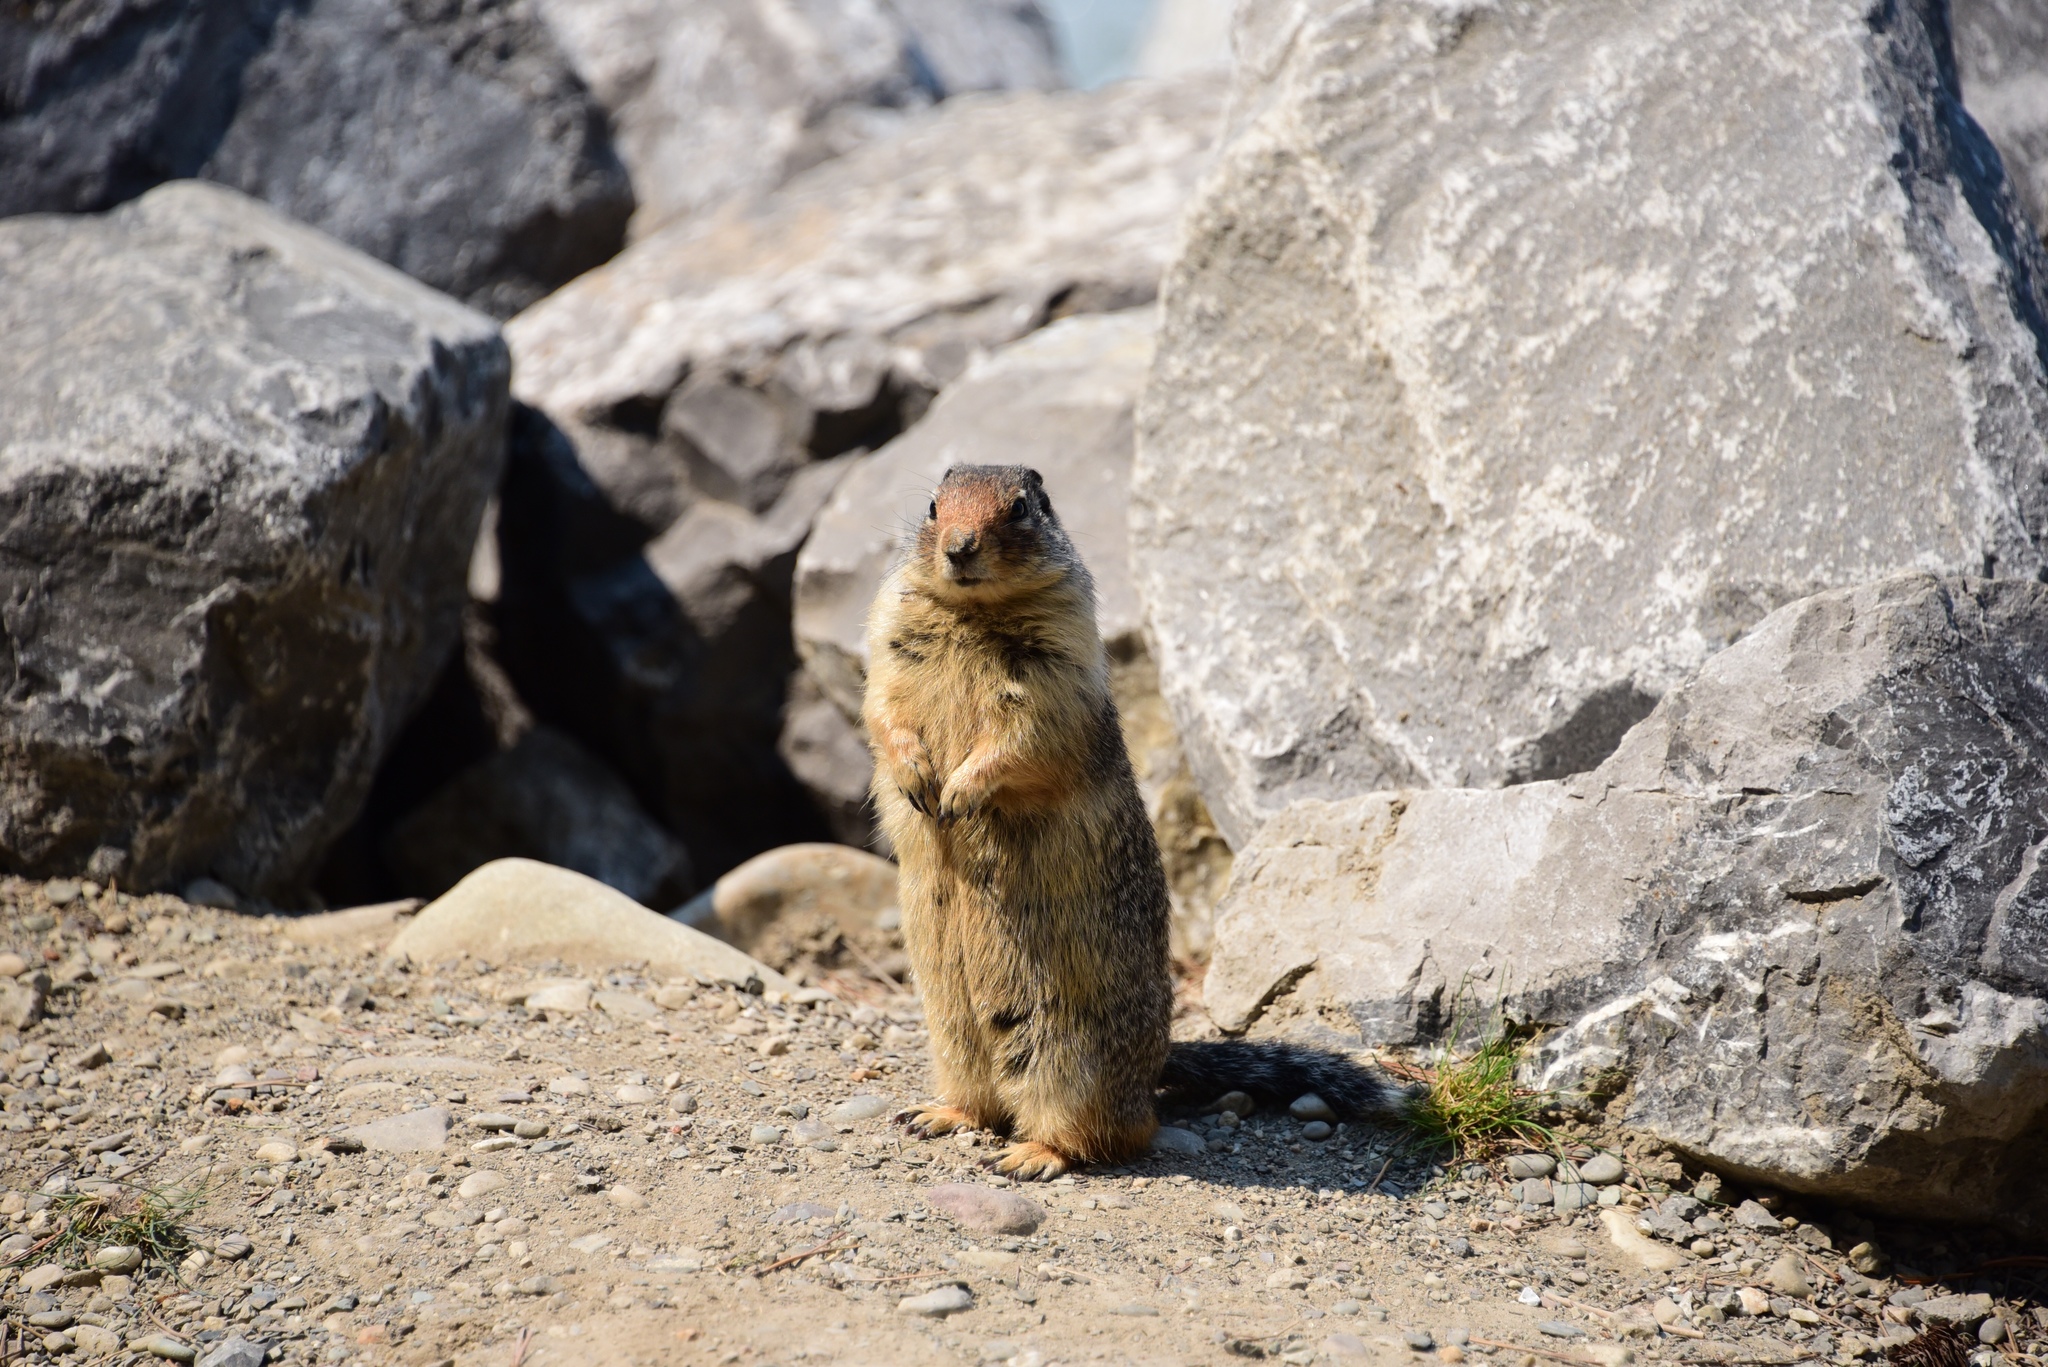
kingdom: Animalia
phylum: Chordata
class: Mammalia
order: Rodentia
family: Sciuridae
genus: Urocitellus
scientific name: Urocitellus columbianus
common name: Columbian ground squirrel
